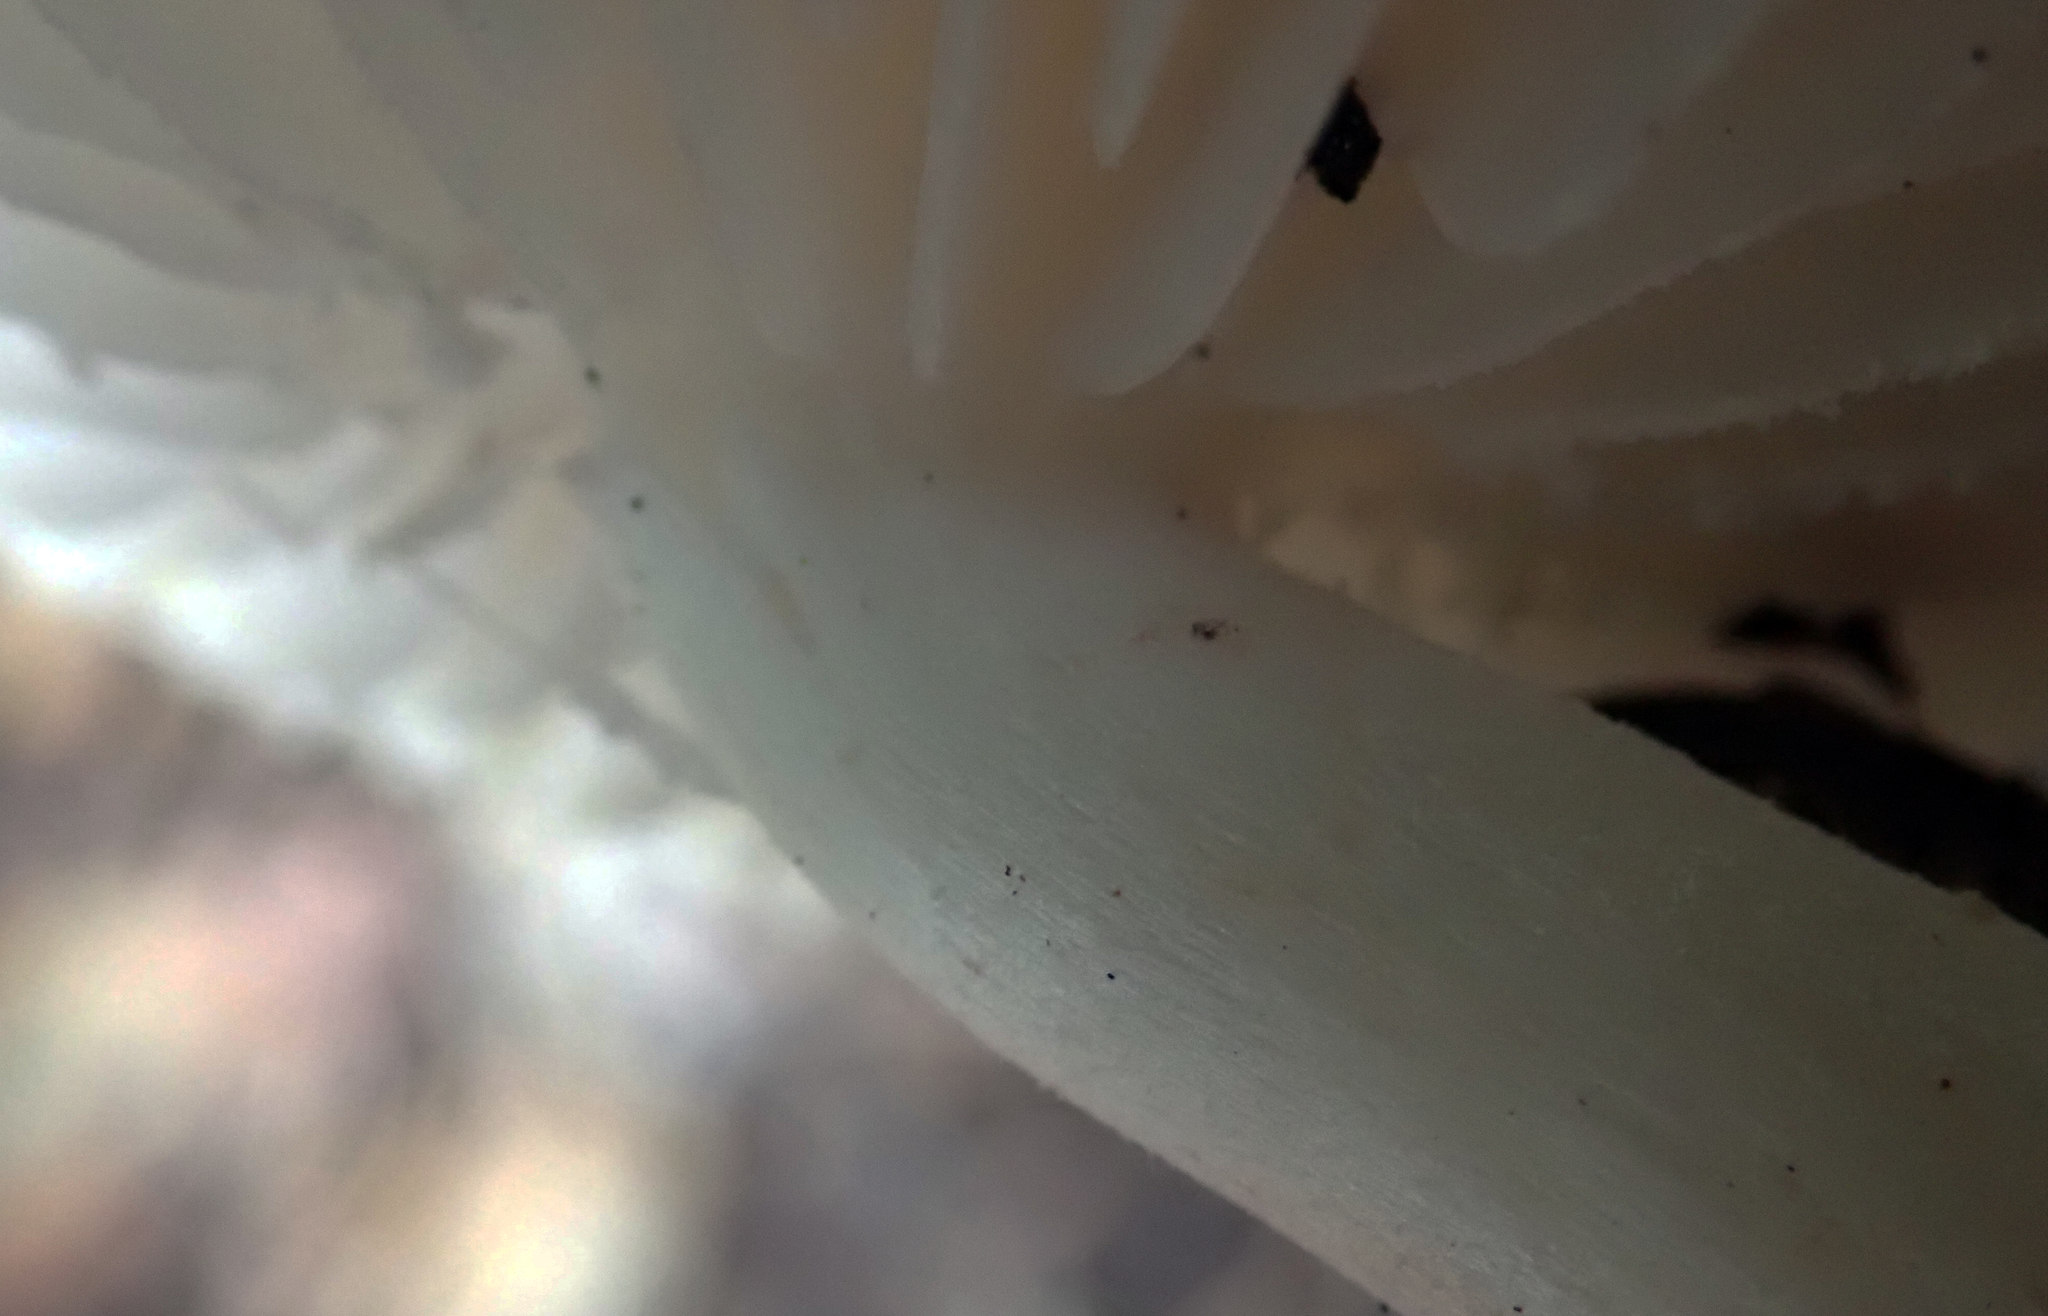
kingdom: Fungi
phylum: Basidiomycota
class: Agaricomycetes
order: Agaricales
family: Physalacriaceae
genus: Oudemansiella
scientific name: Oudemansiella australis
